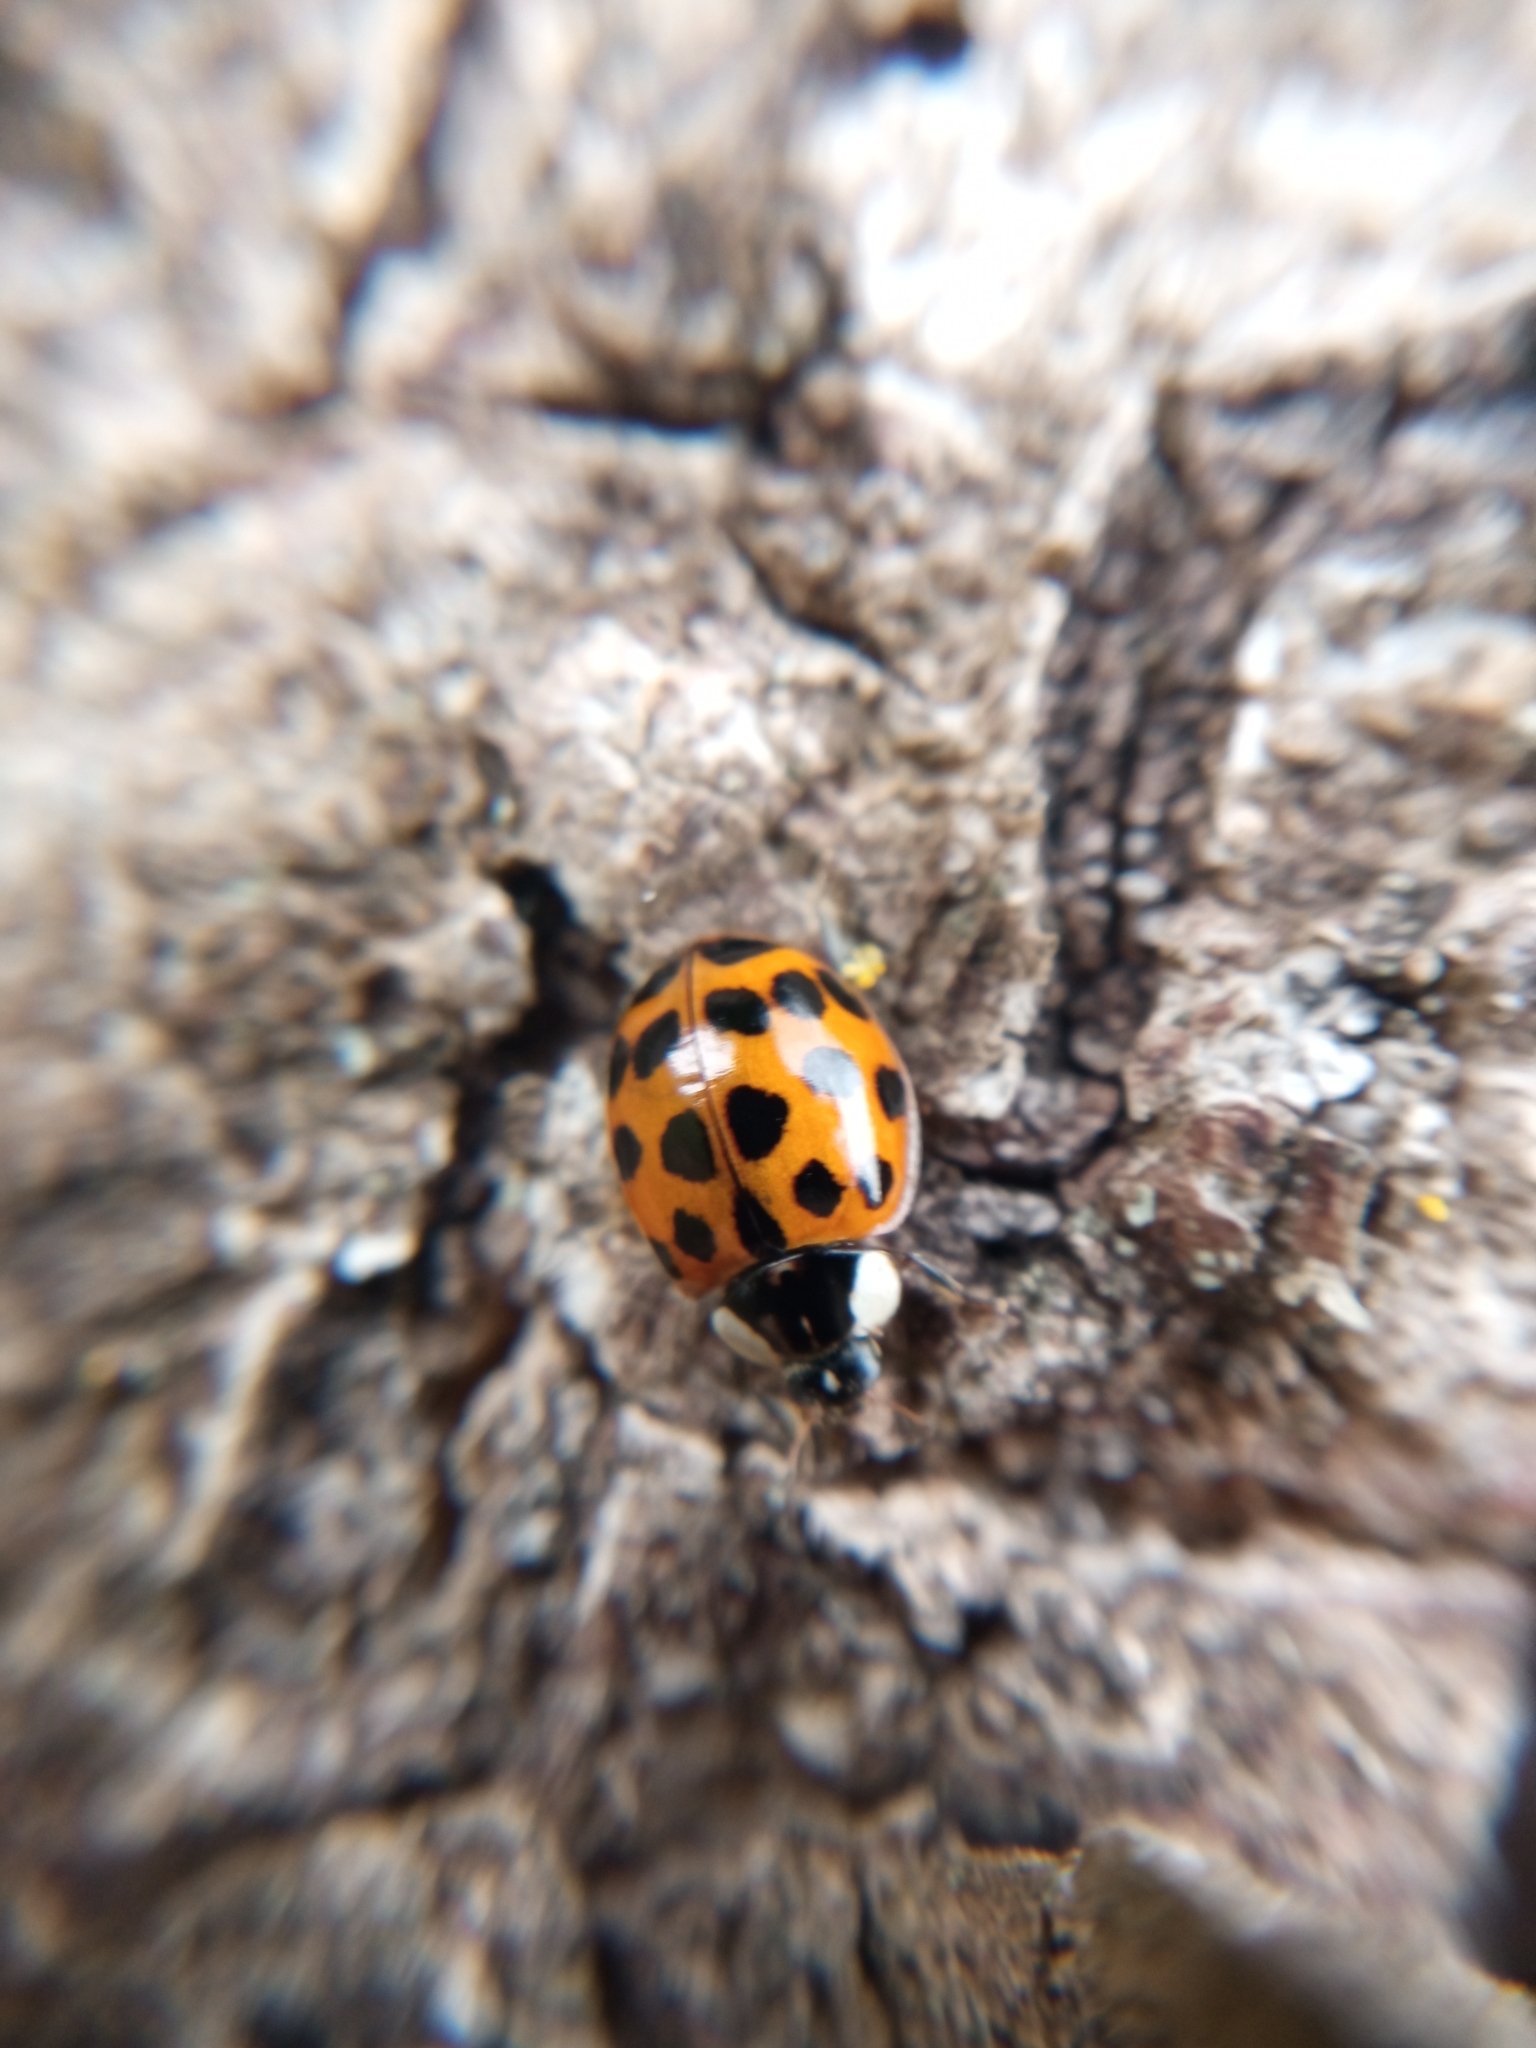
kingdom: Animalia
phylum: Arthropoda
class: Insecta
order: Coleoptera
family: Coccinellidae
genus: Harmonia
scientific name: Harmonia axyridis
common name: Harlequin ladybird
